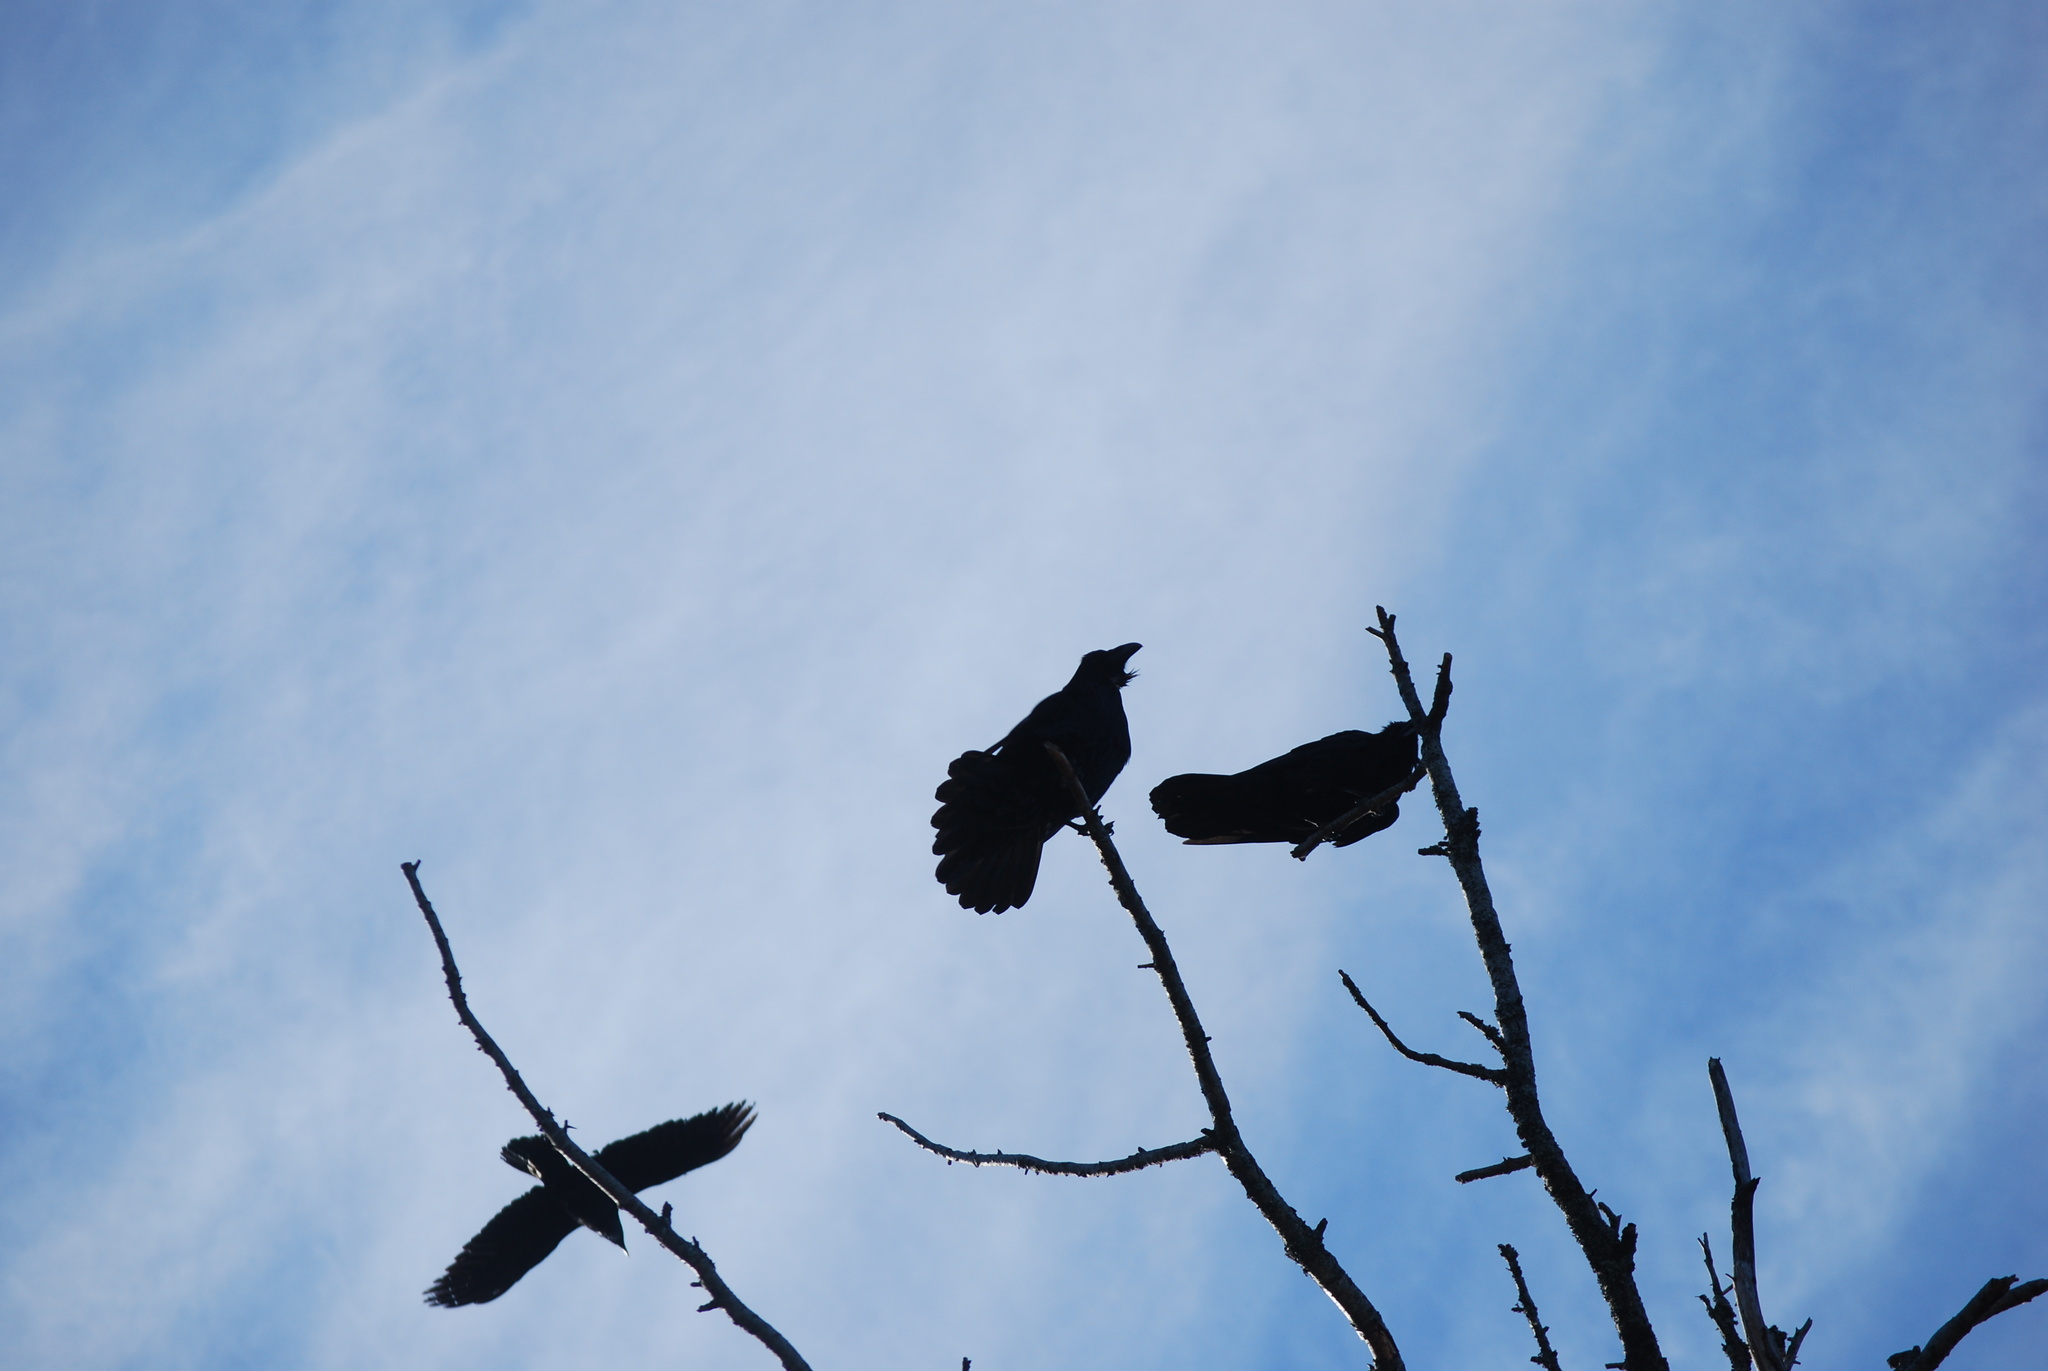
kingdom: Animalia
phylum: Chordata
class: Aves
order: Passeriformes
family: Corvidae
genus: Corvus
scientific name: Corvus corax
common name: Common raven
